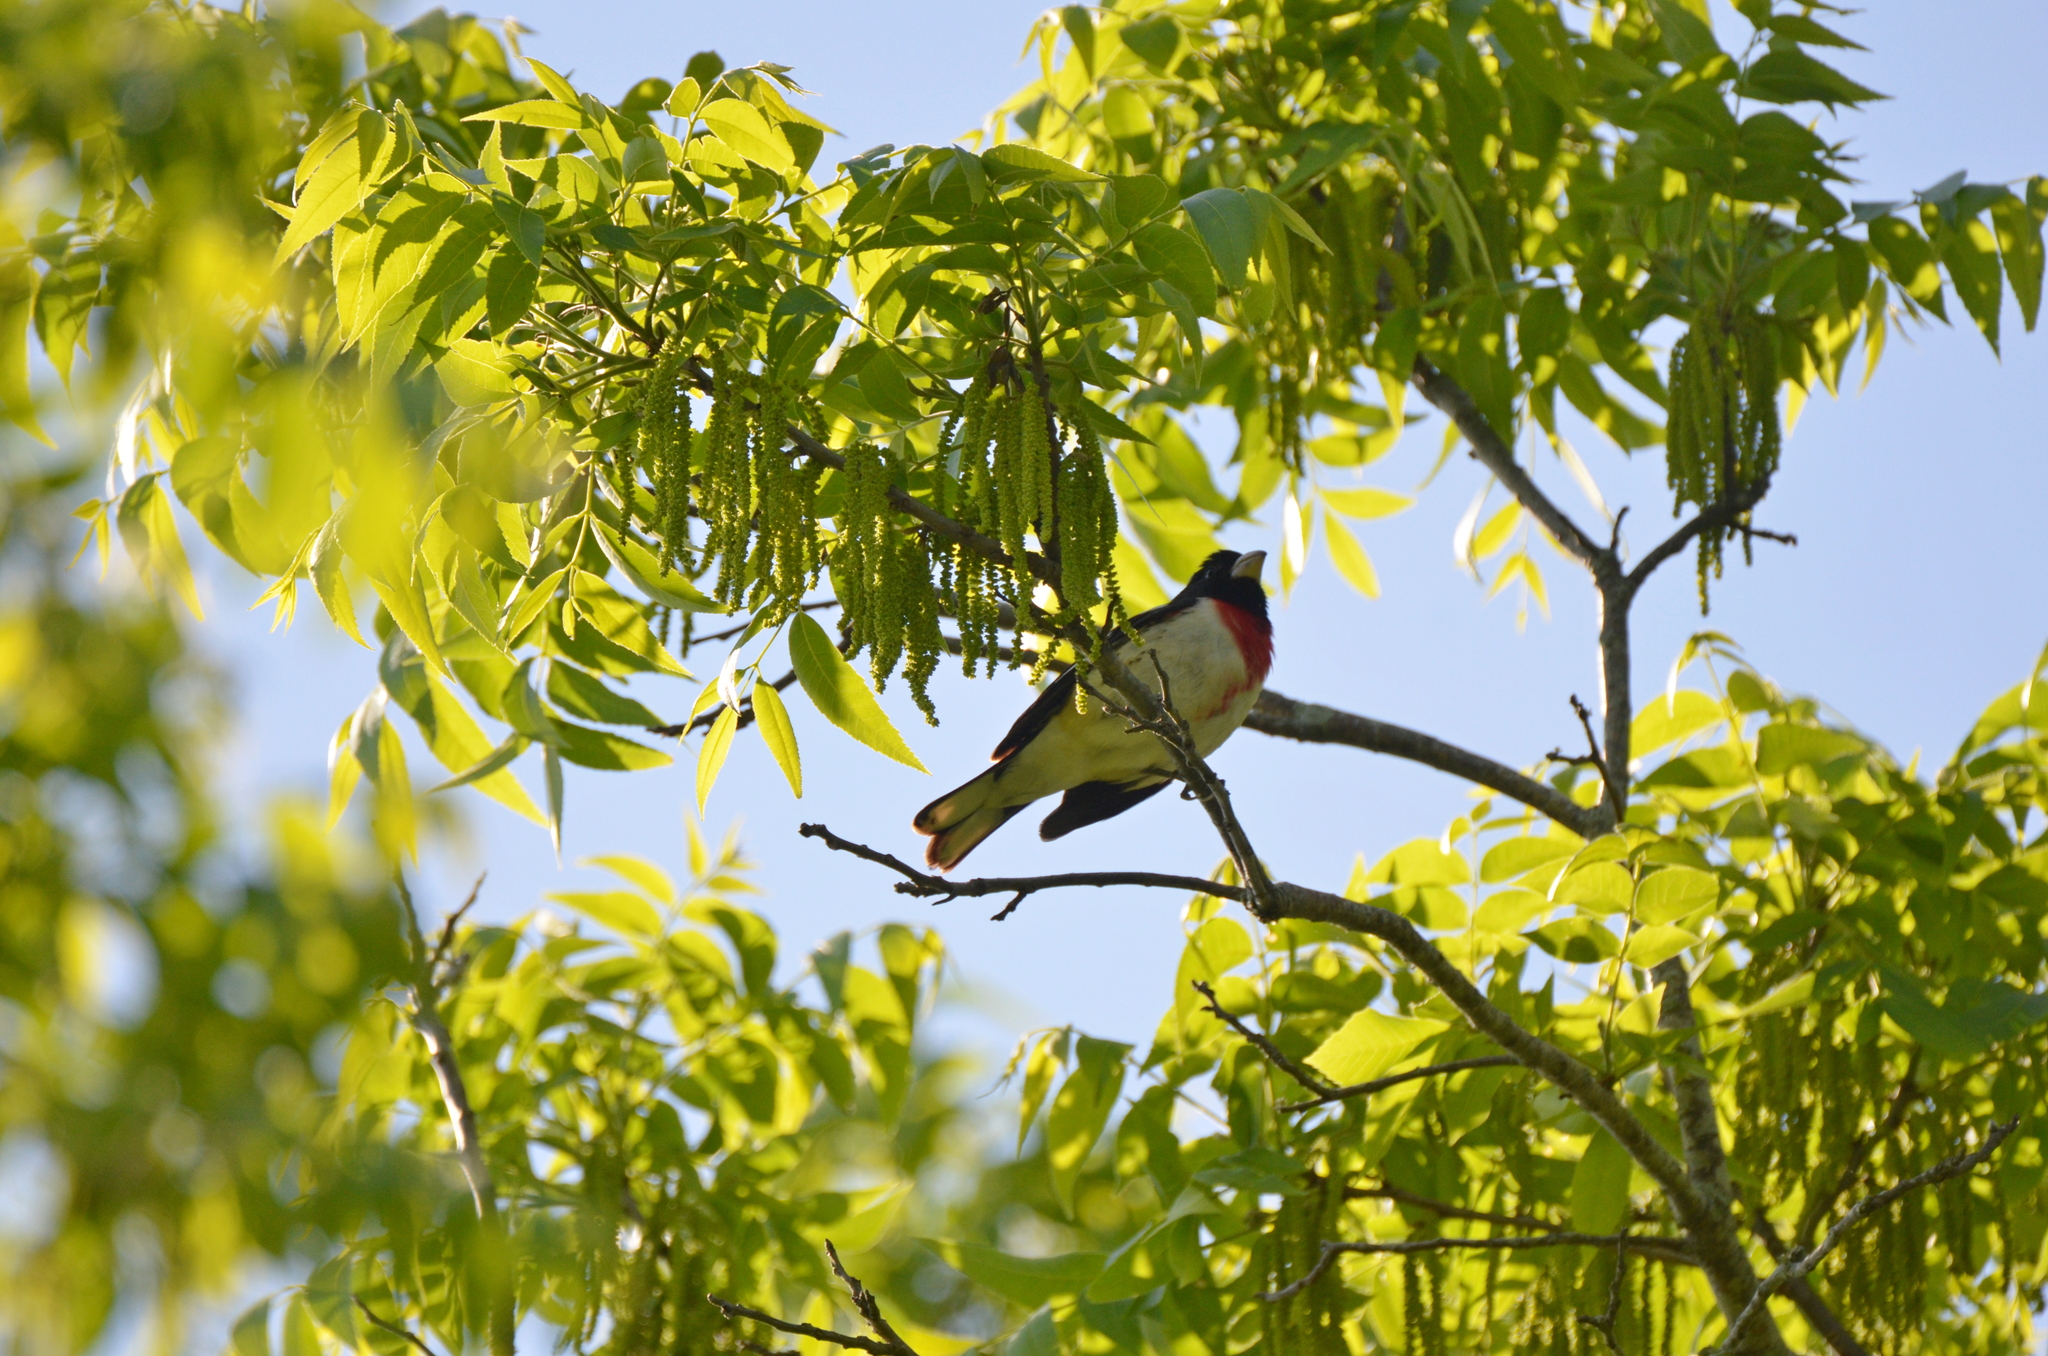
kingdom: Animalia
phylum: Chordata
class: Aves
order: Passeriformes
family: Cardinalidae
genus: Pheucticus
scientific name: Pheucticus ludovicianus
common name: Rose-breasted grosbeak
